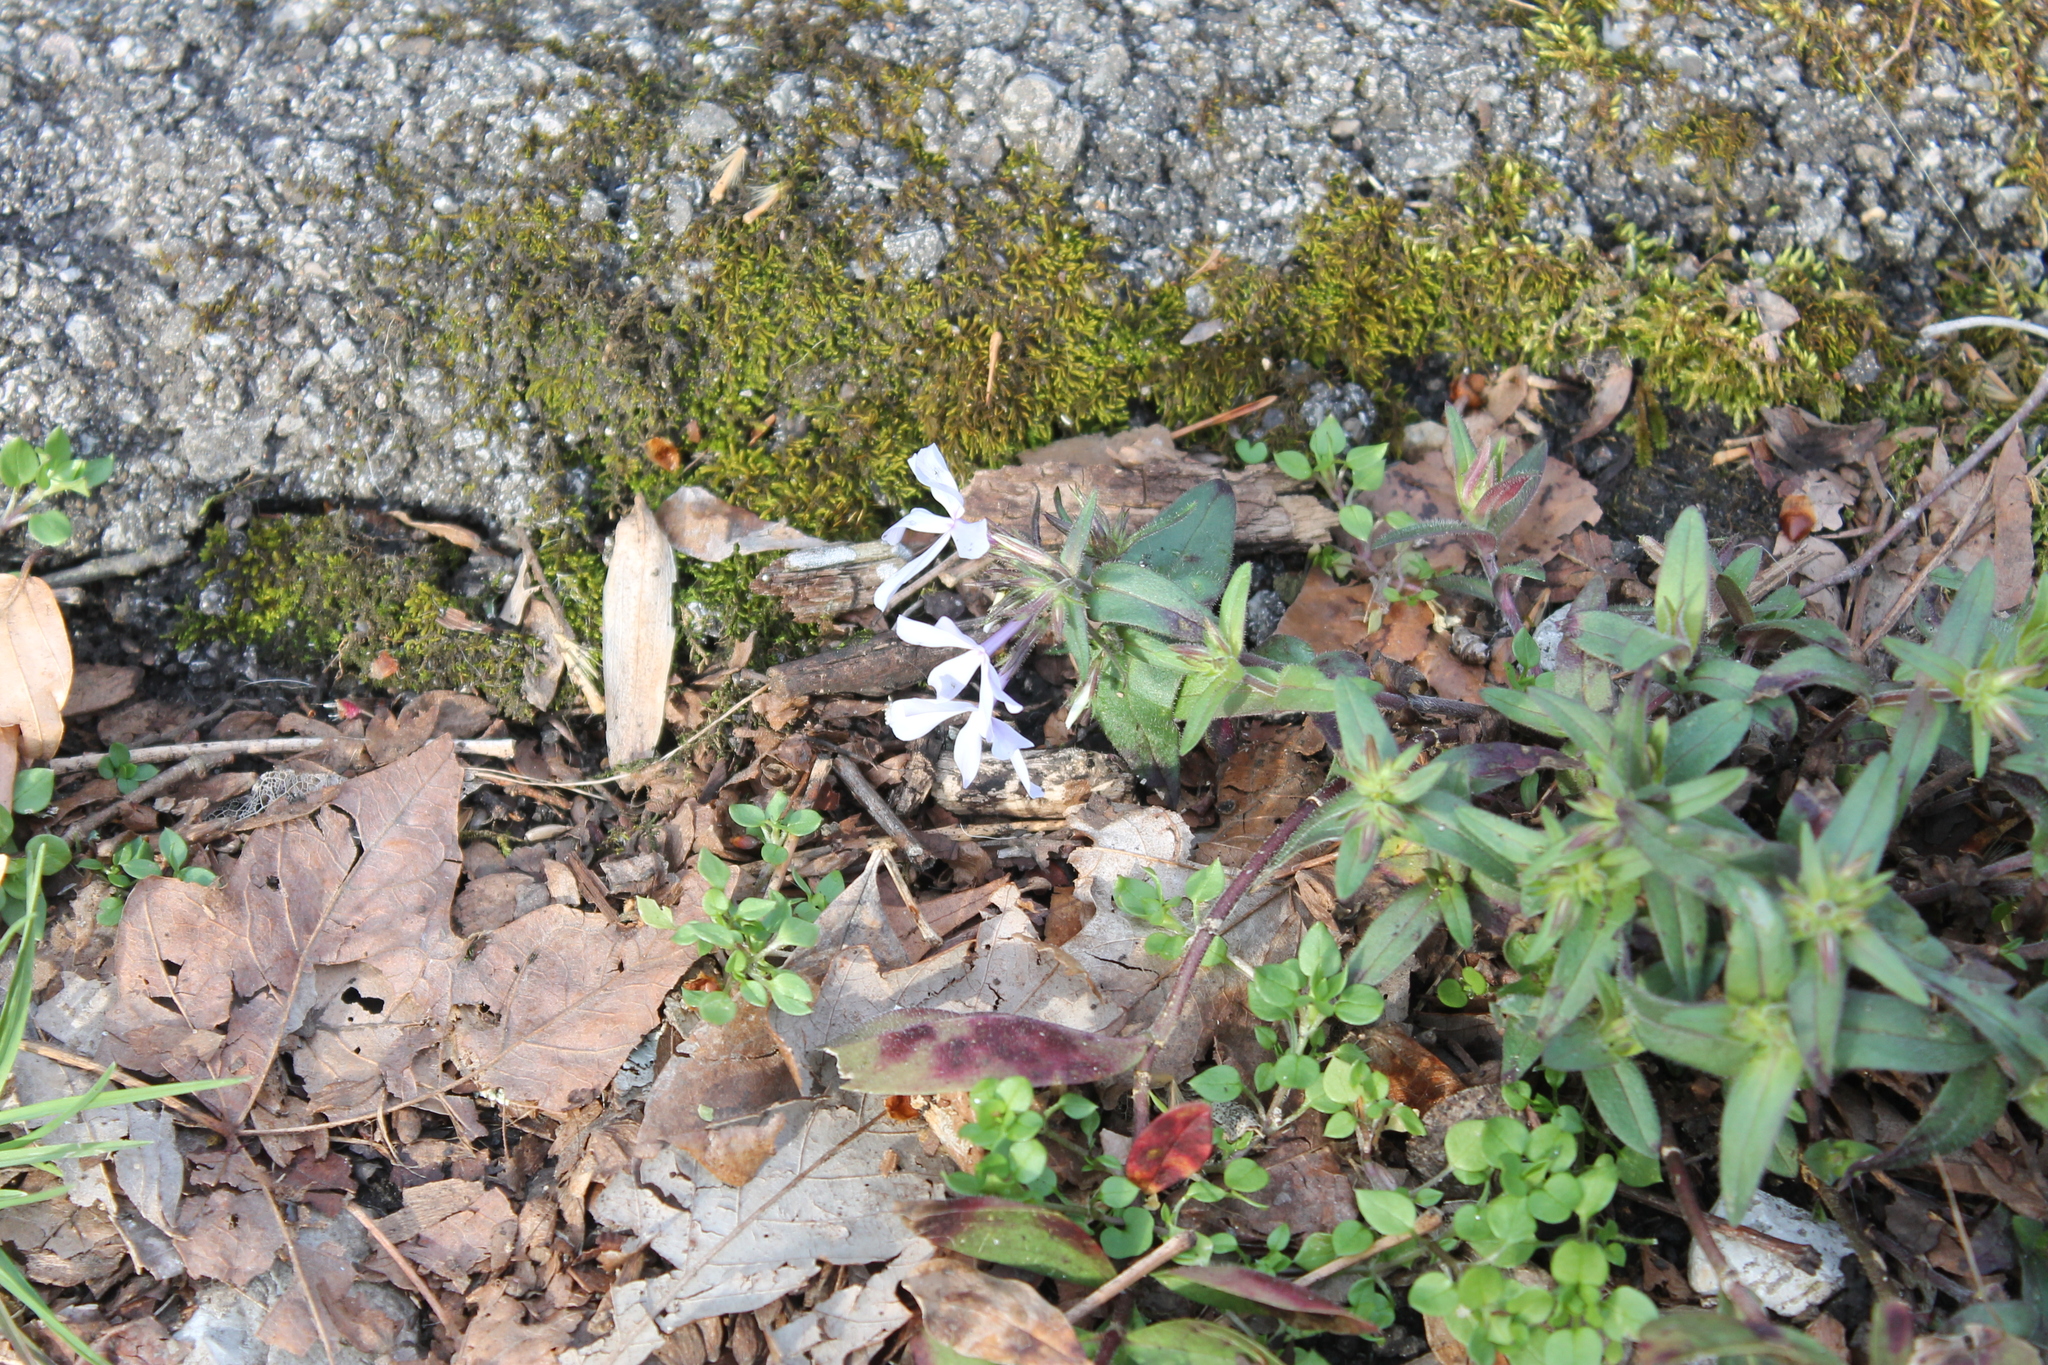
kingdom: Plantae
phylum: Tracheophyta
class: Magnoliopsida
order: Ericales
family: Polemoniaceae
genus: Phlox
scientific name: Phlox divaricata
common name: Blue phlox
